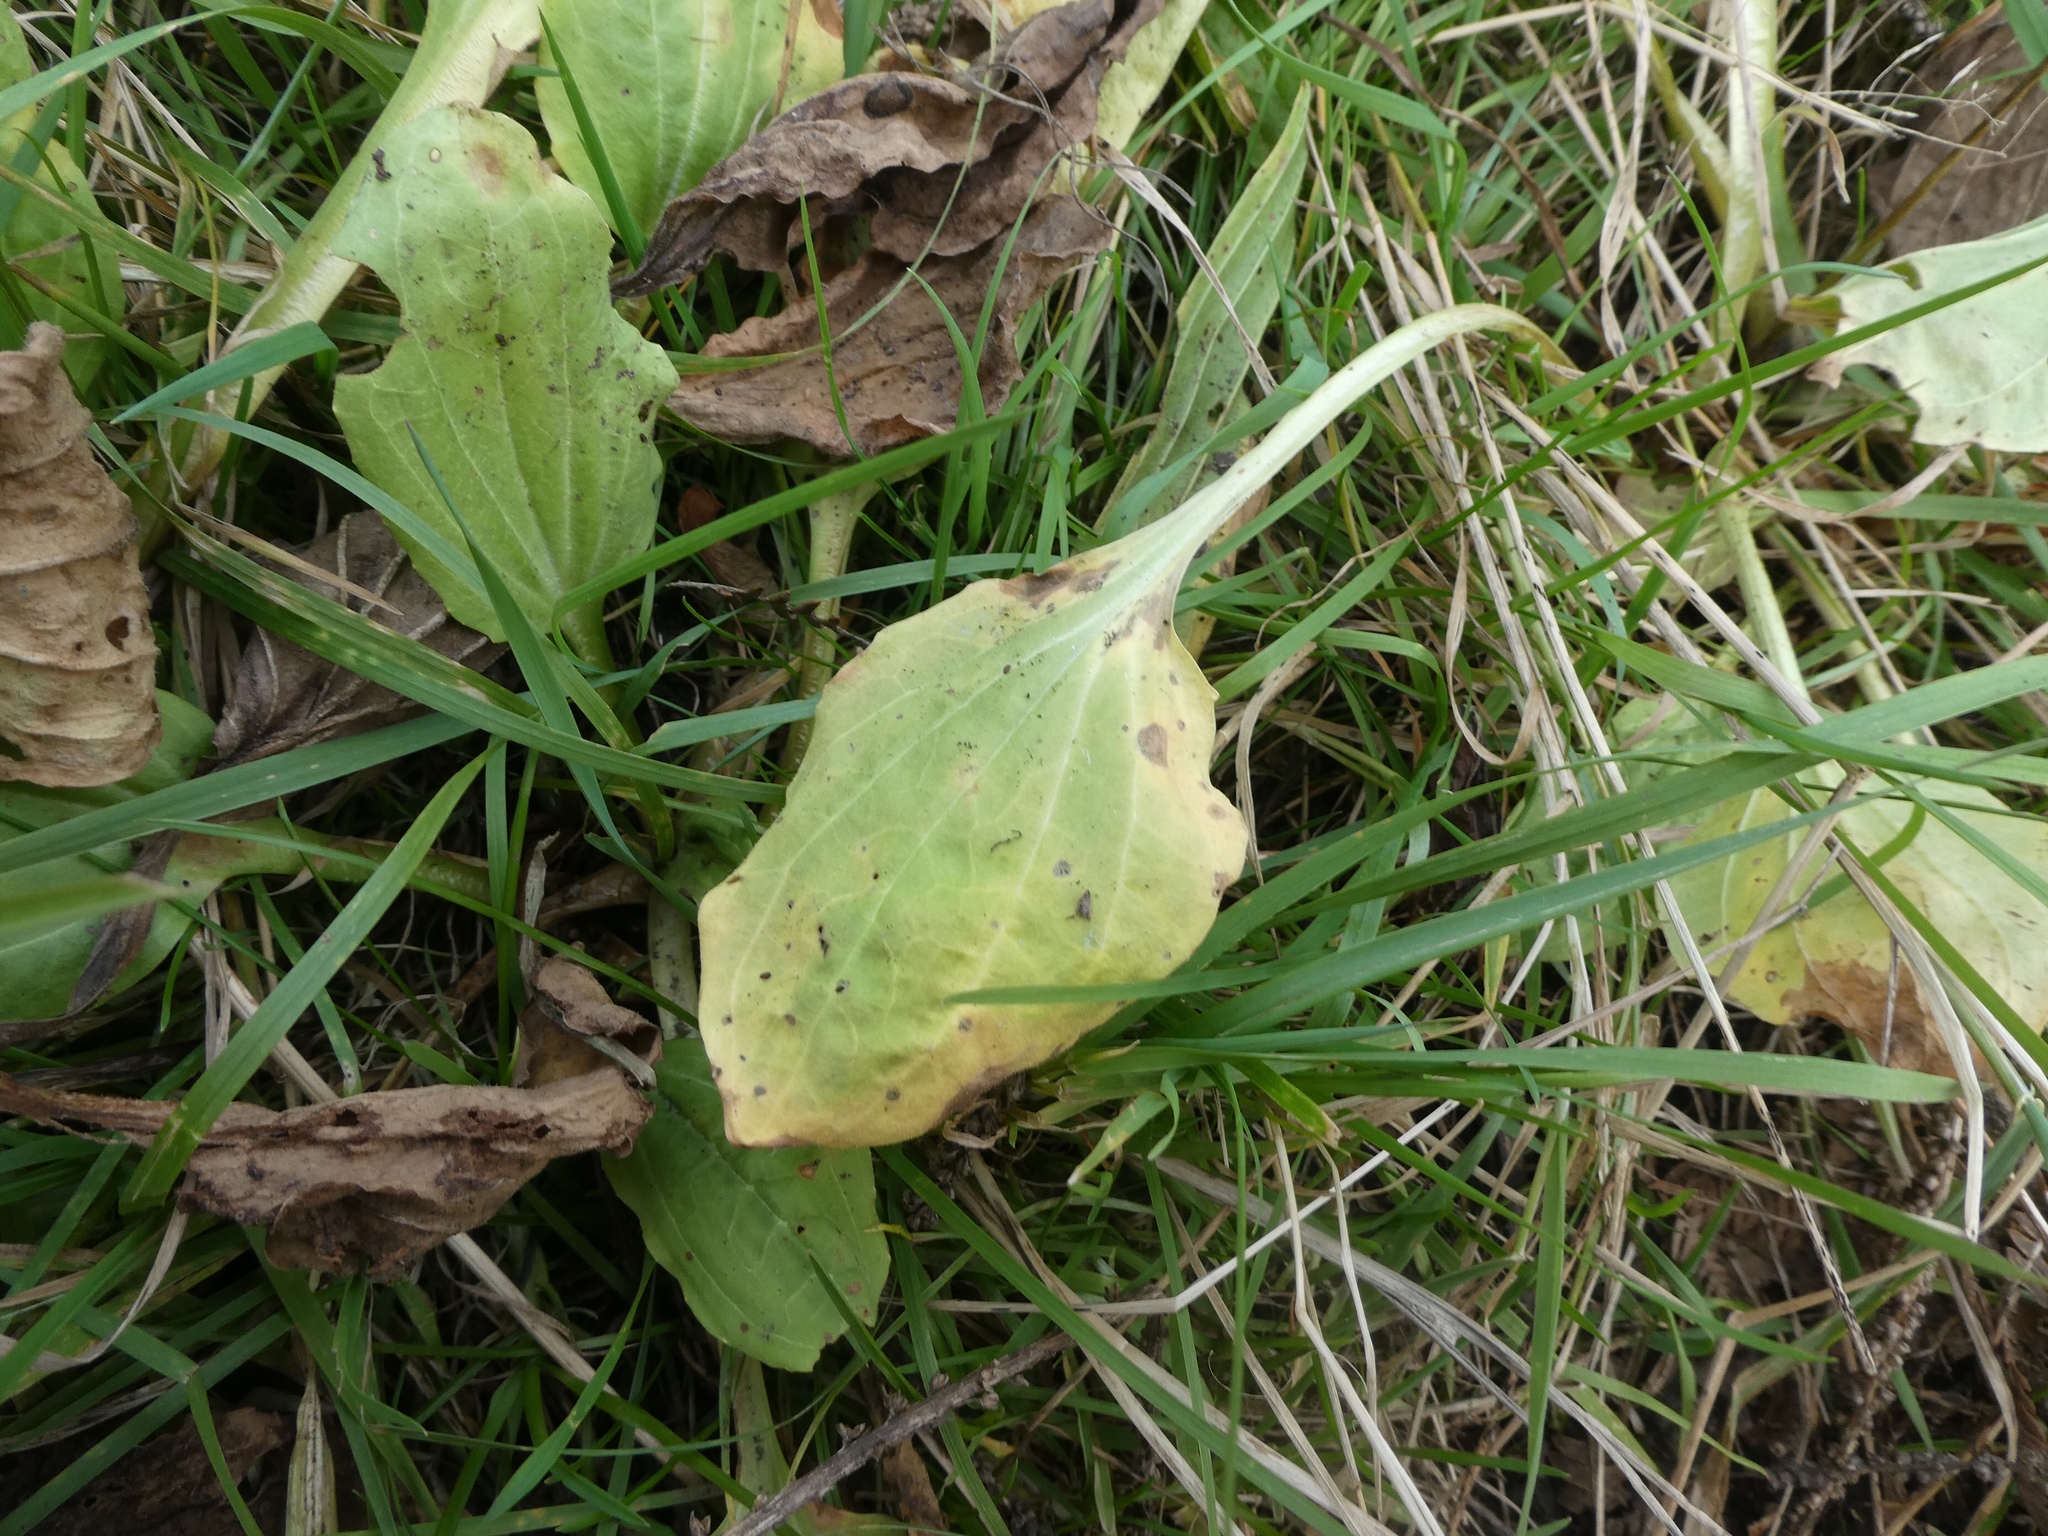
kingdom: Plantae
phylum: Tracheophyta
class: Magnoliopsida
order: Lamiales
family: Plantaginaceae
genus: Plantago
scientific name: Plantago major
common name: Common plantain
